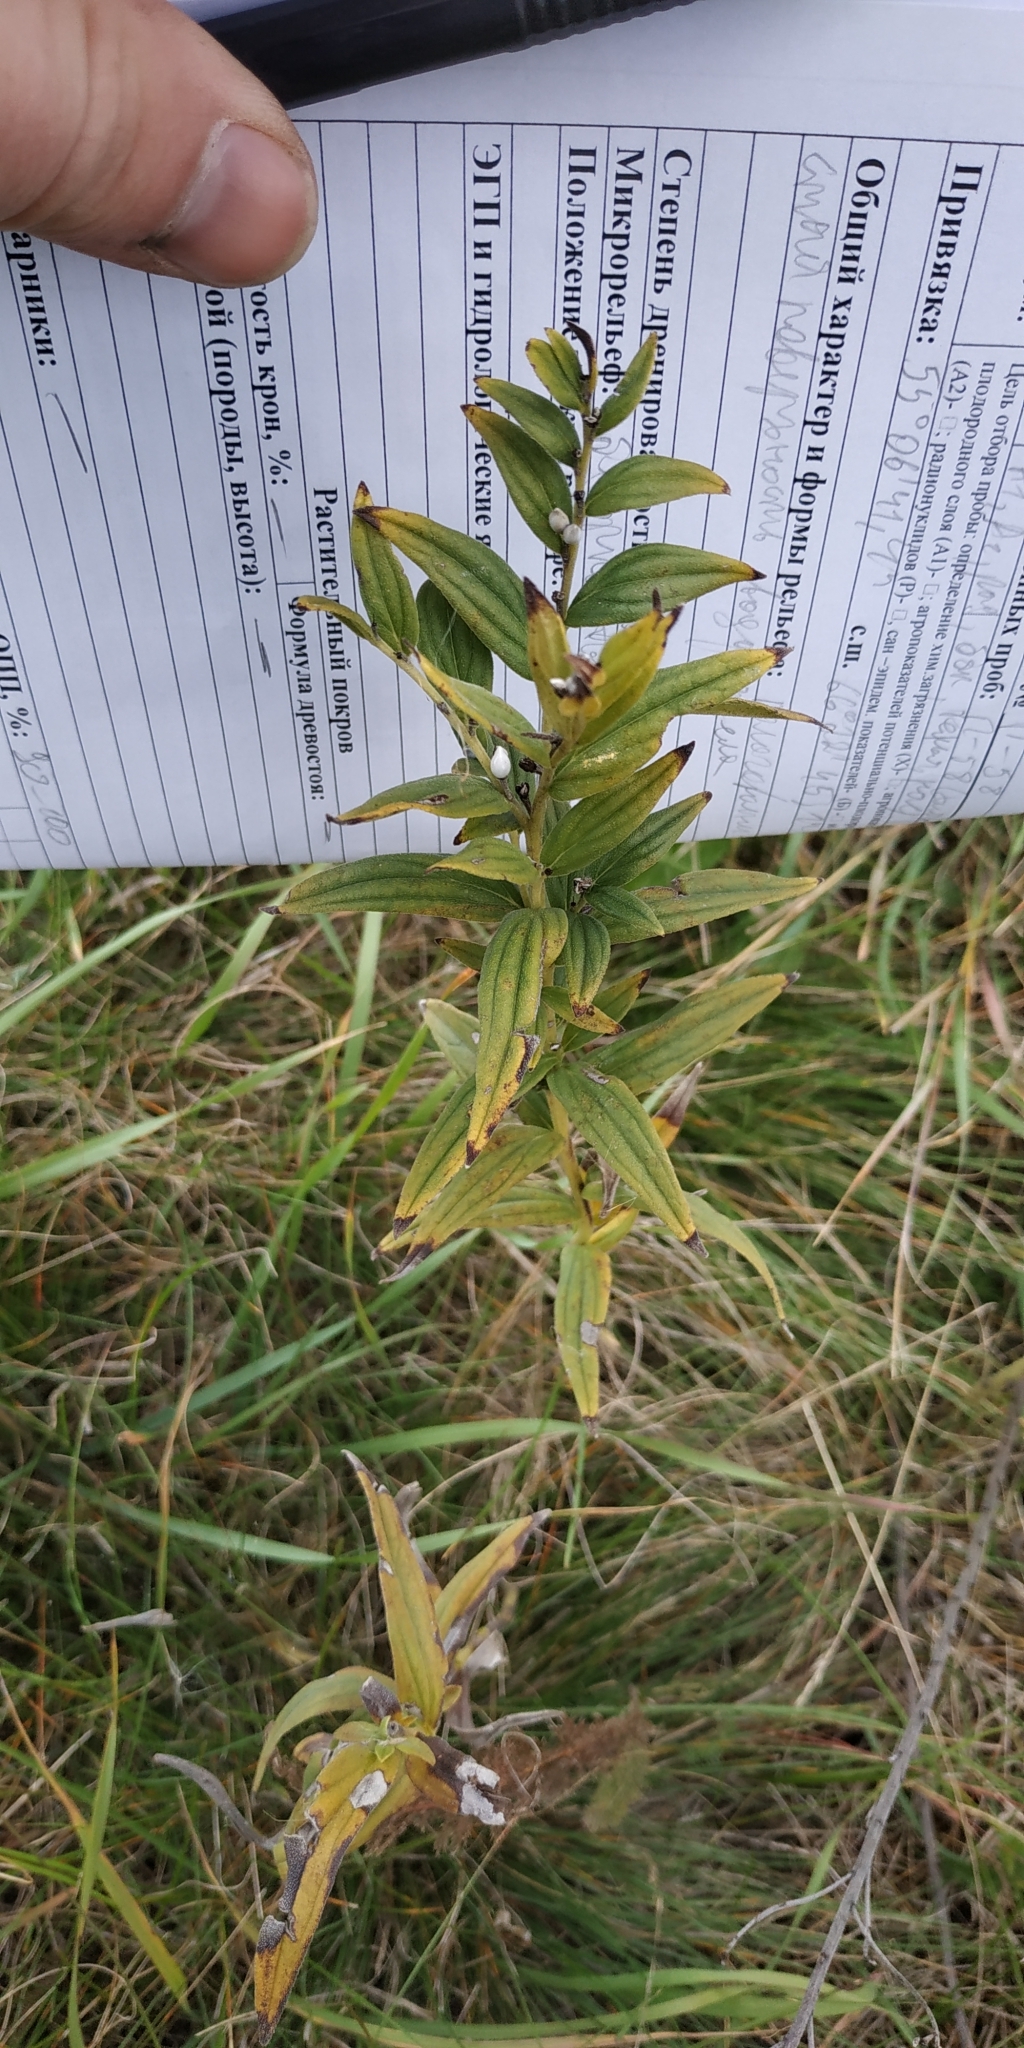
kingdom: Plantae
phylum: Tracheophyta
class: Magnoliopsida
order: Boraginales
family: Boraginaceae
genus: Lithospermum
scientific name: Lithospermum officinale
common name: Common gromwell
